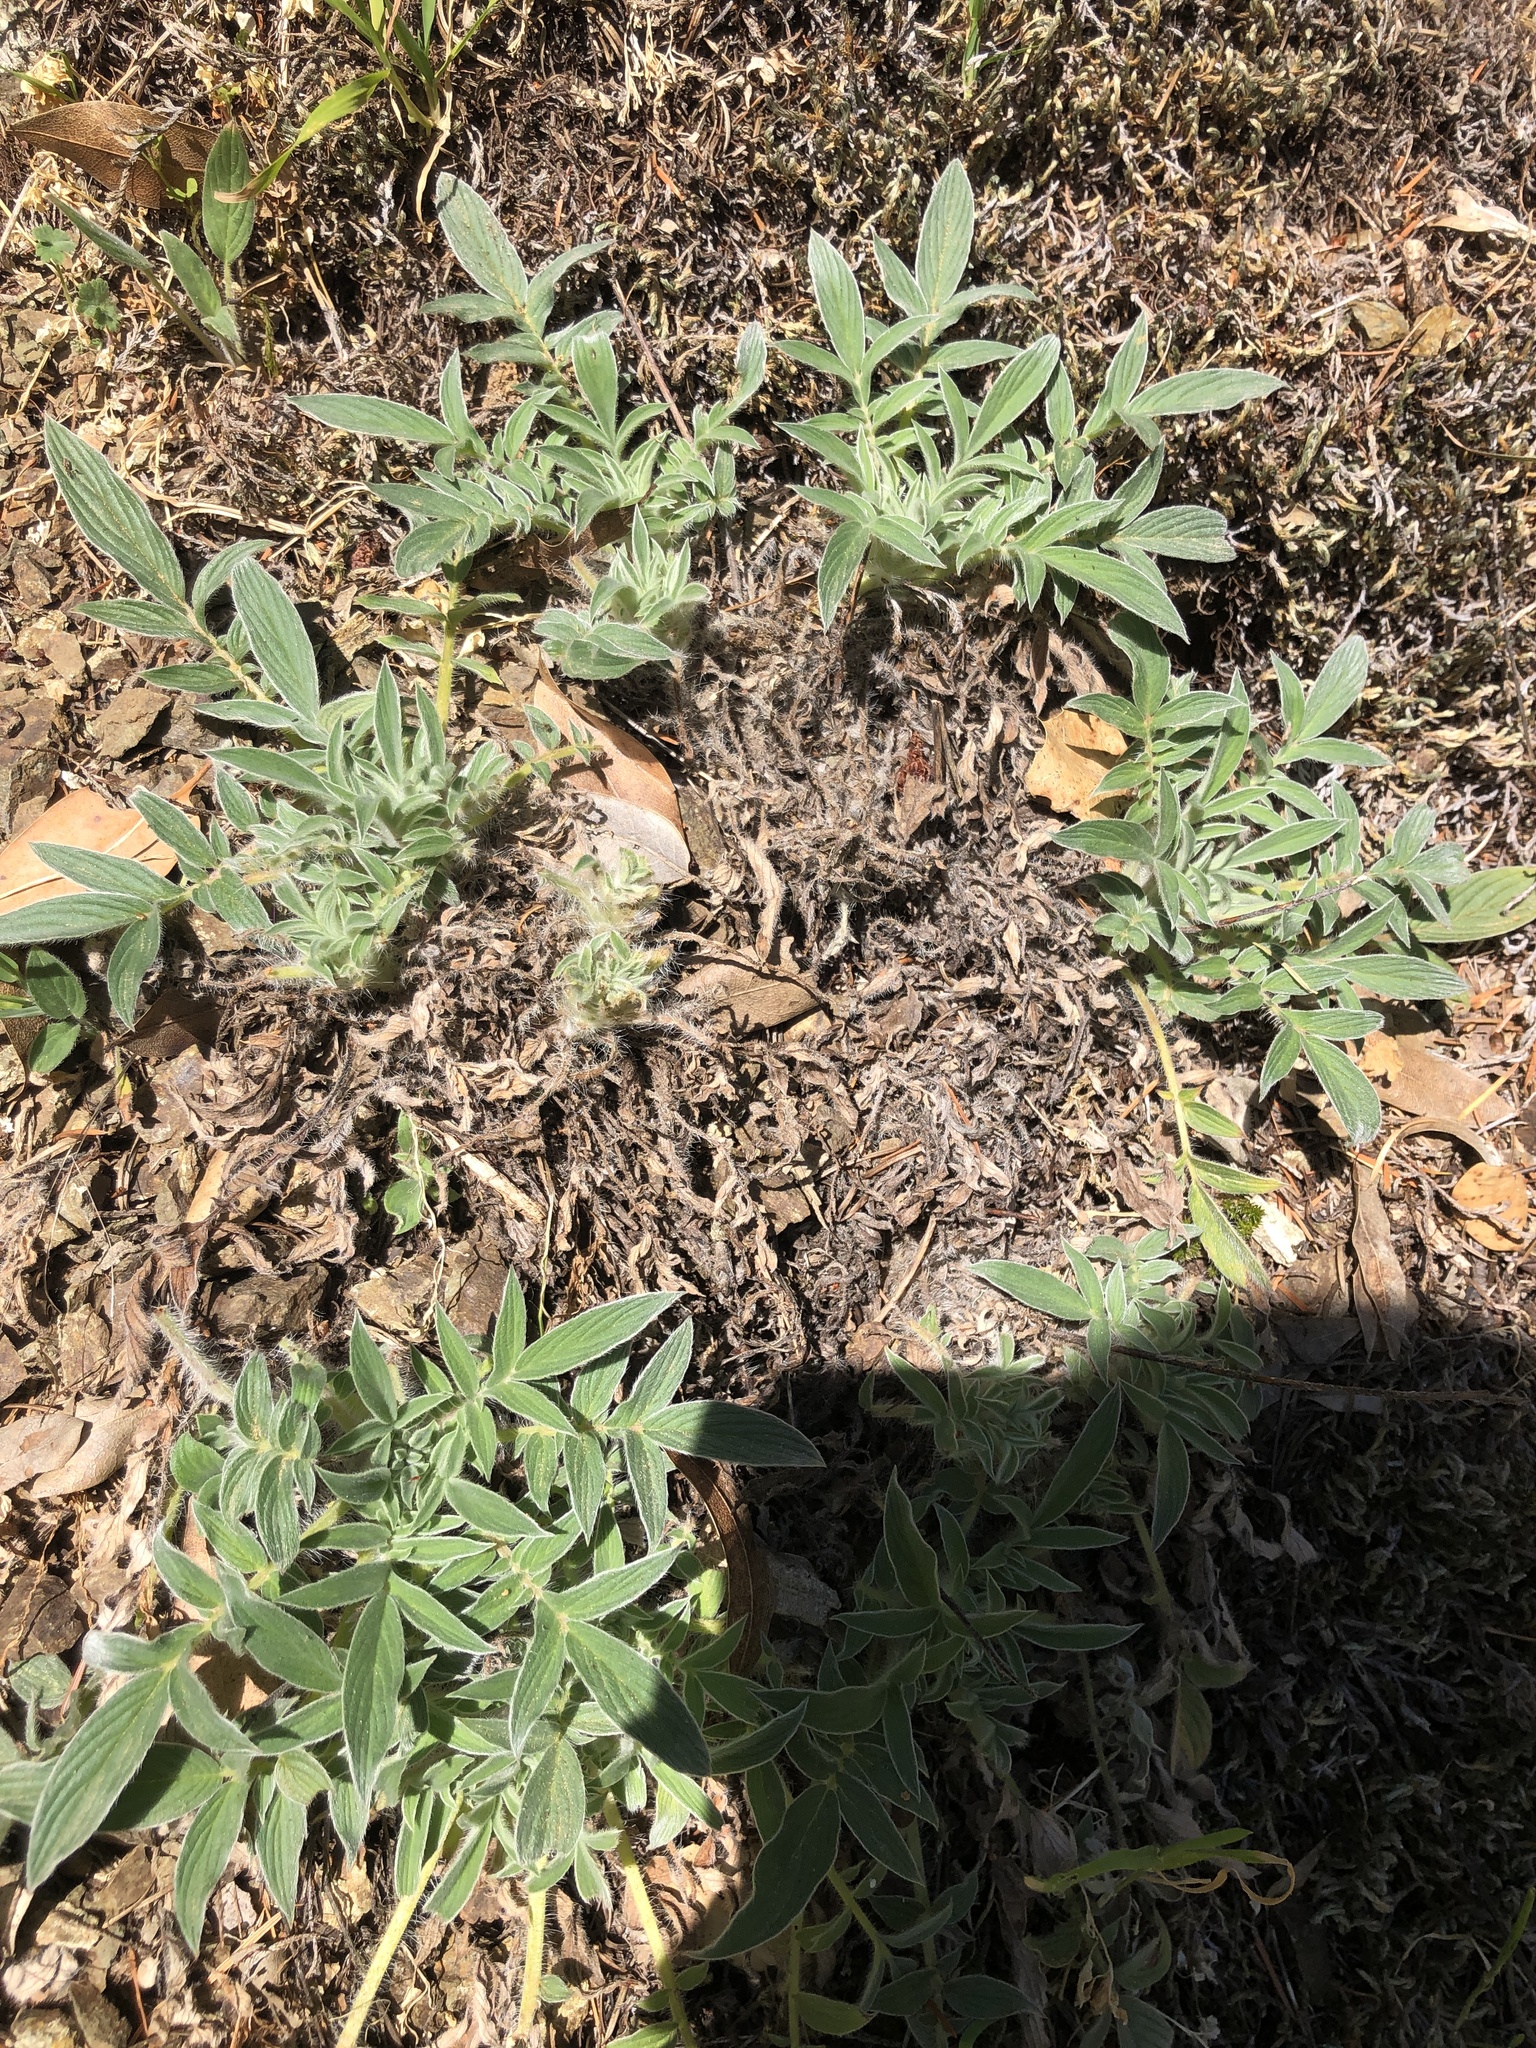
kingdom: Plantae
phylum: Tracheophyta
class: Magnoliopsida
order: Boraginales
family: Hydrophyllaceae
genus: Phacelia
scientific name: Phacelia imbricata
